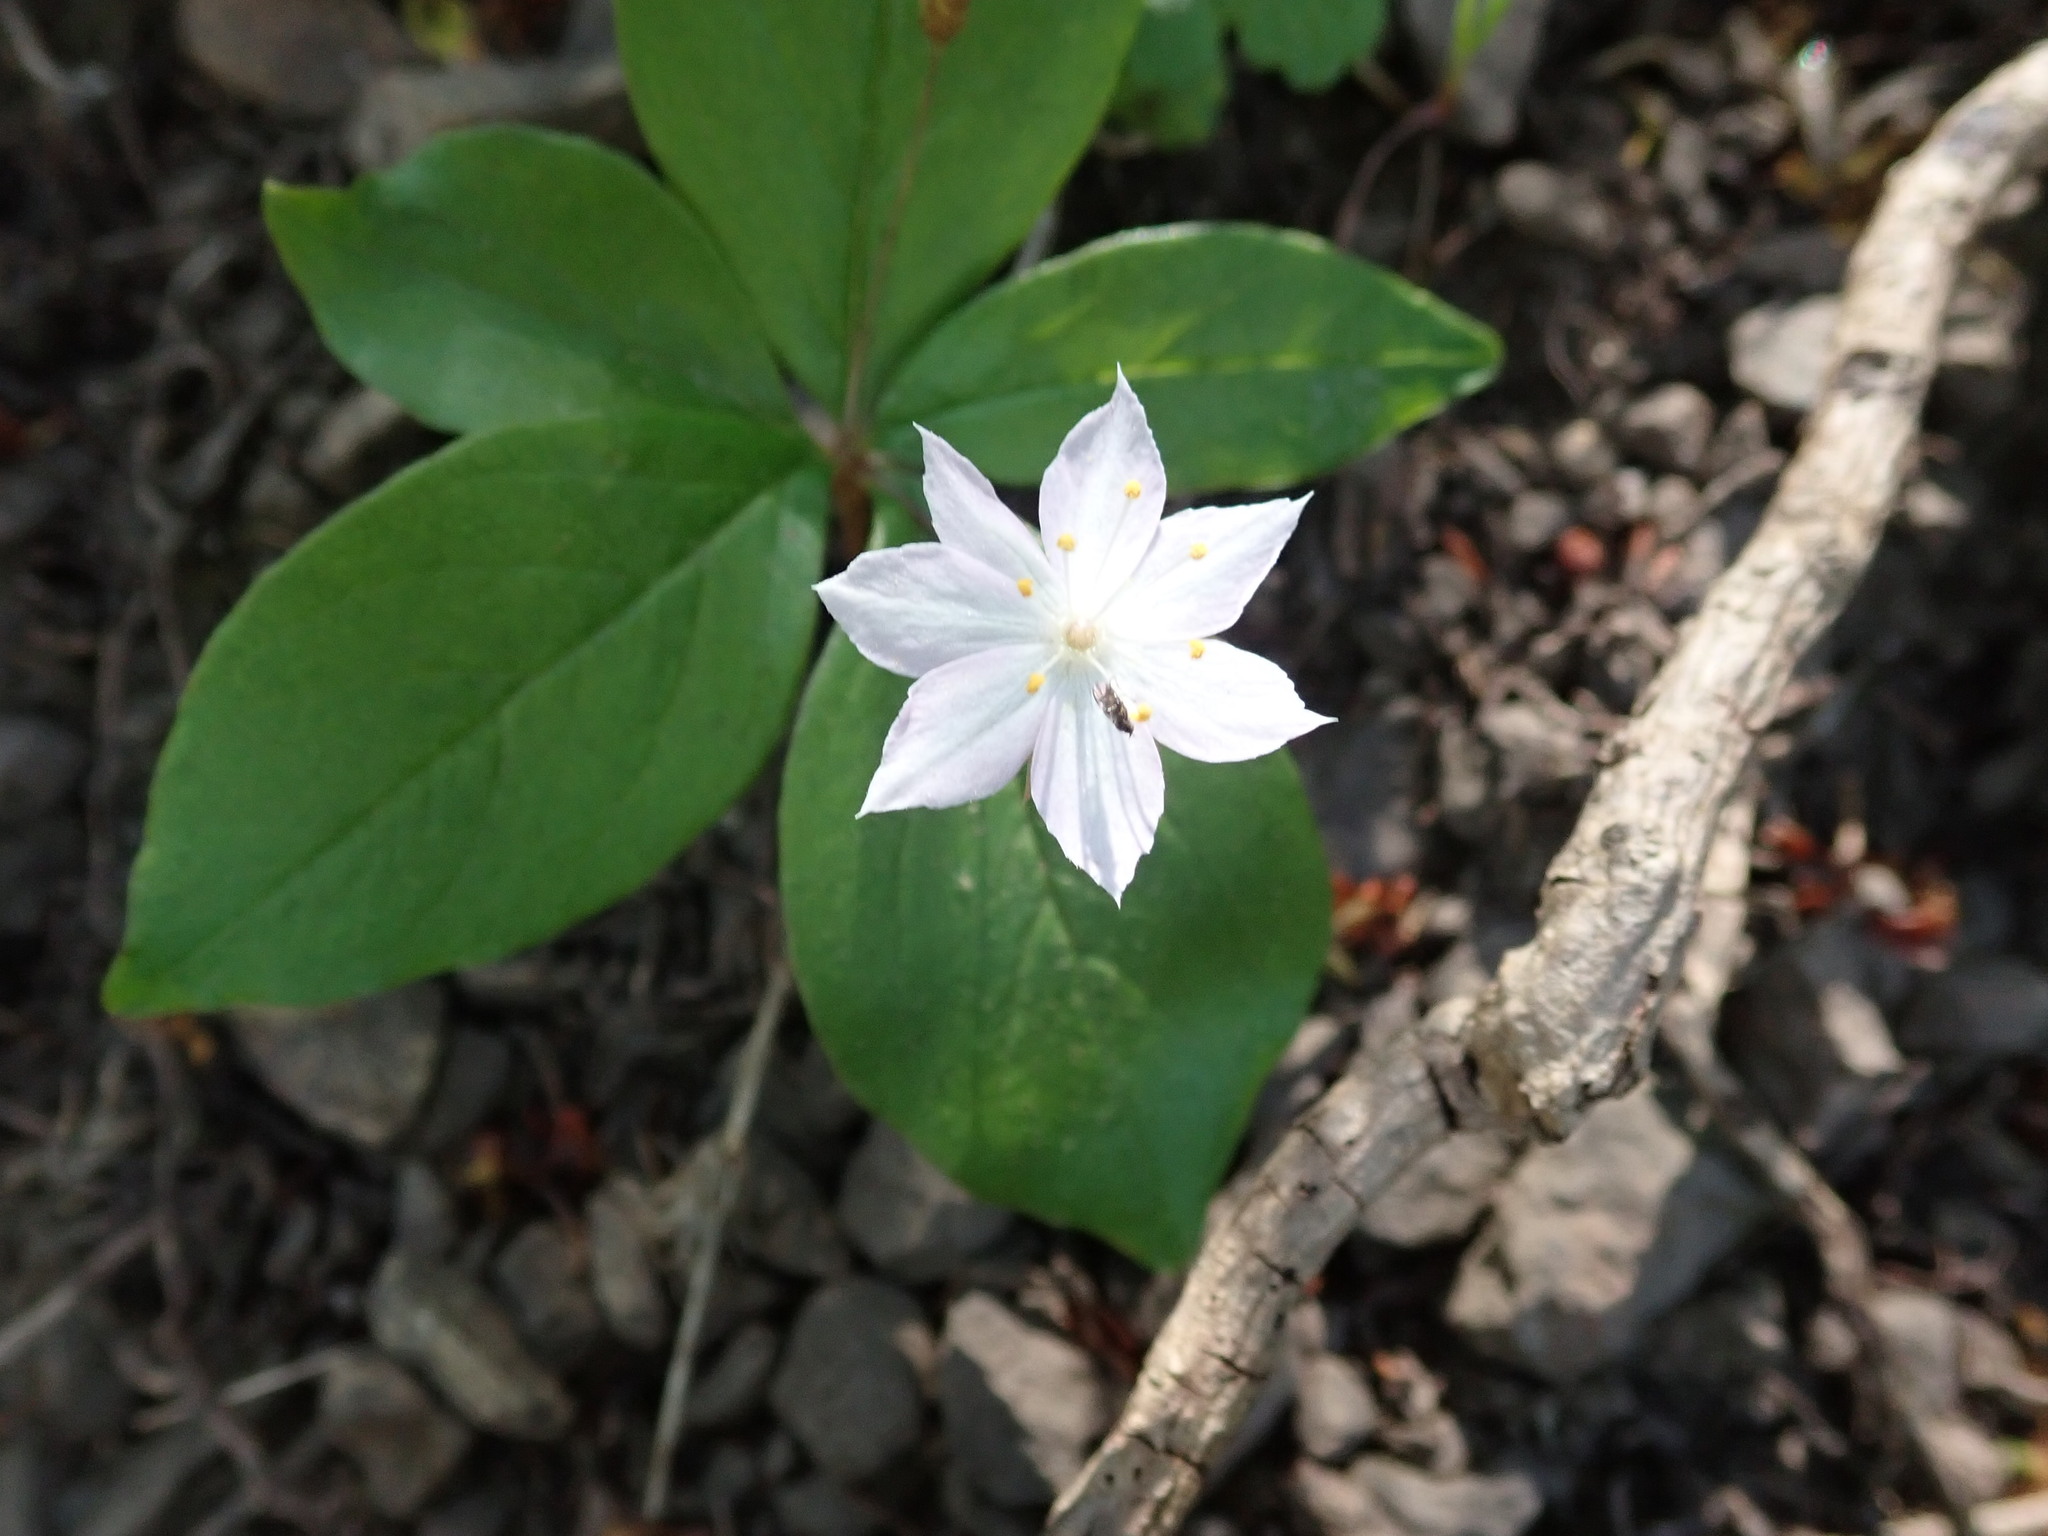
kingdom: Plantae
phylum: Tracheophyta
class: Magnoliopsida
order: Ericales
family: Primulaceae
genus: Lysimachia
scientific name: Lysimachia latifolia
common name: Pacific starflower
